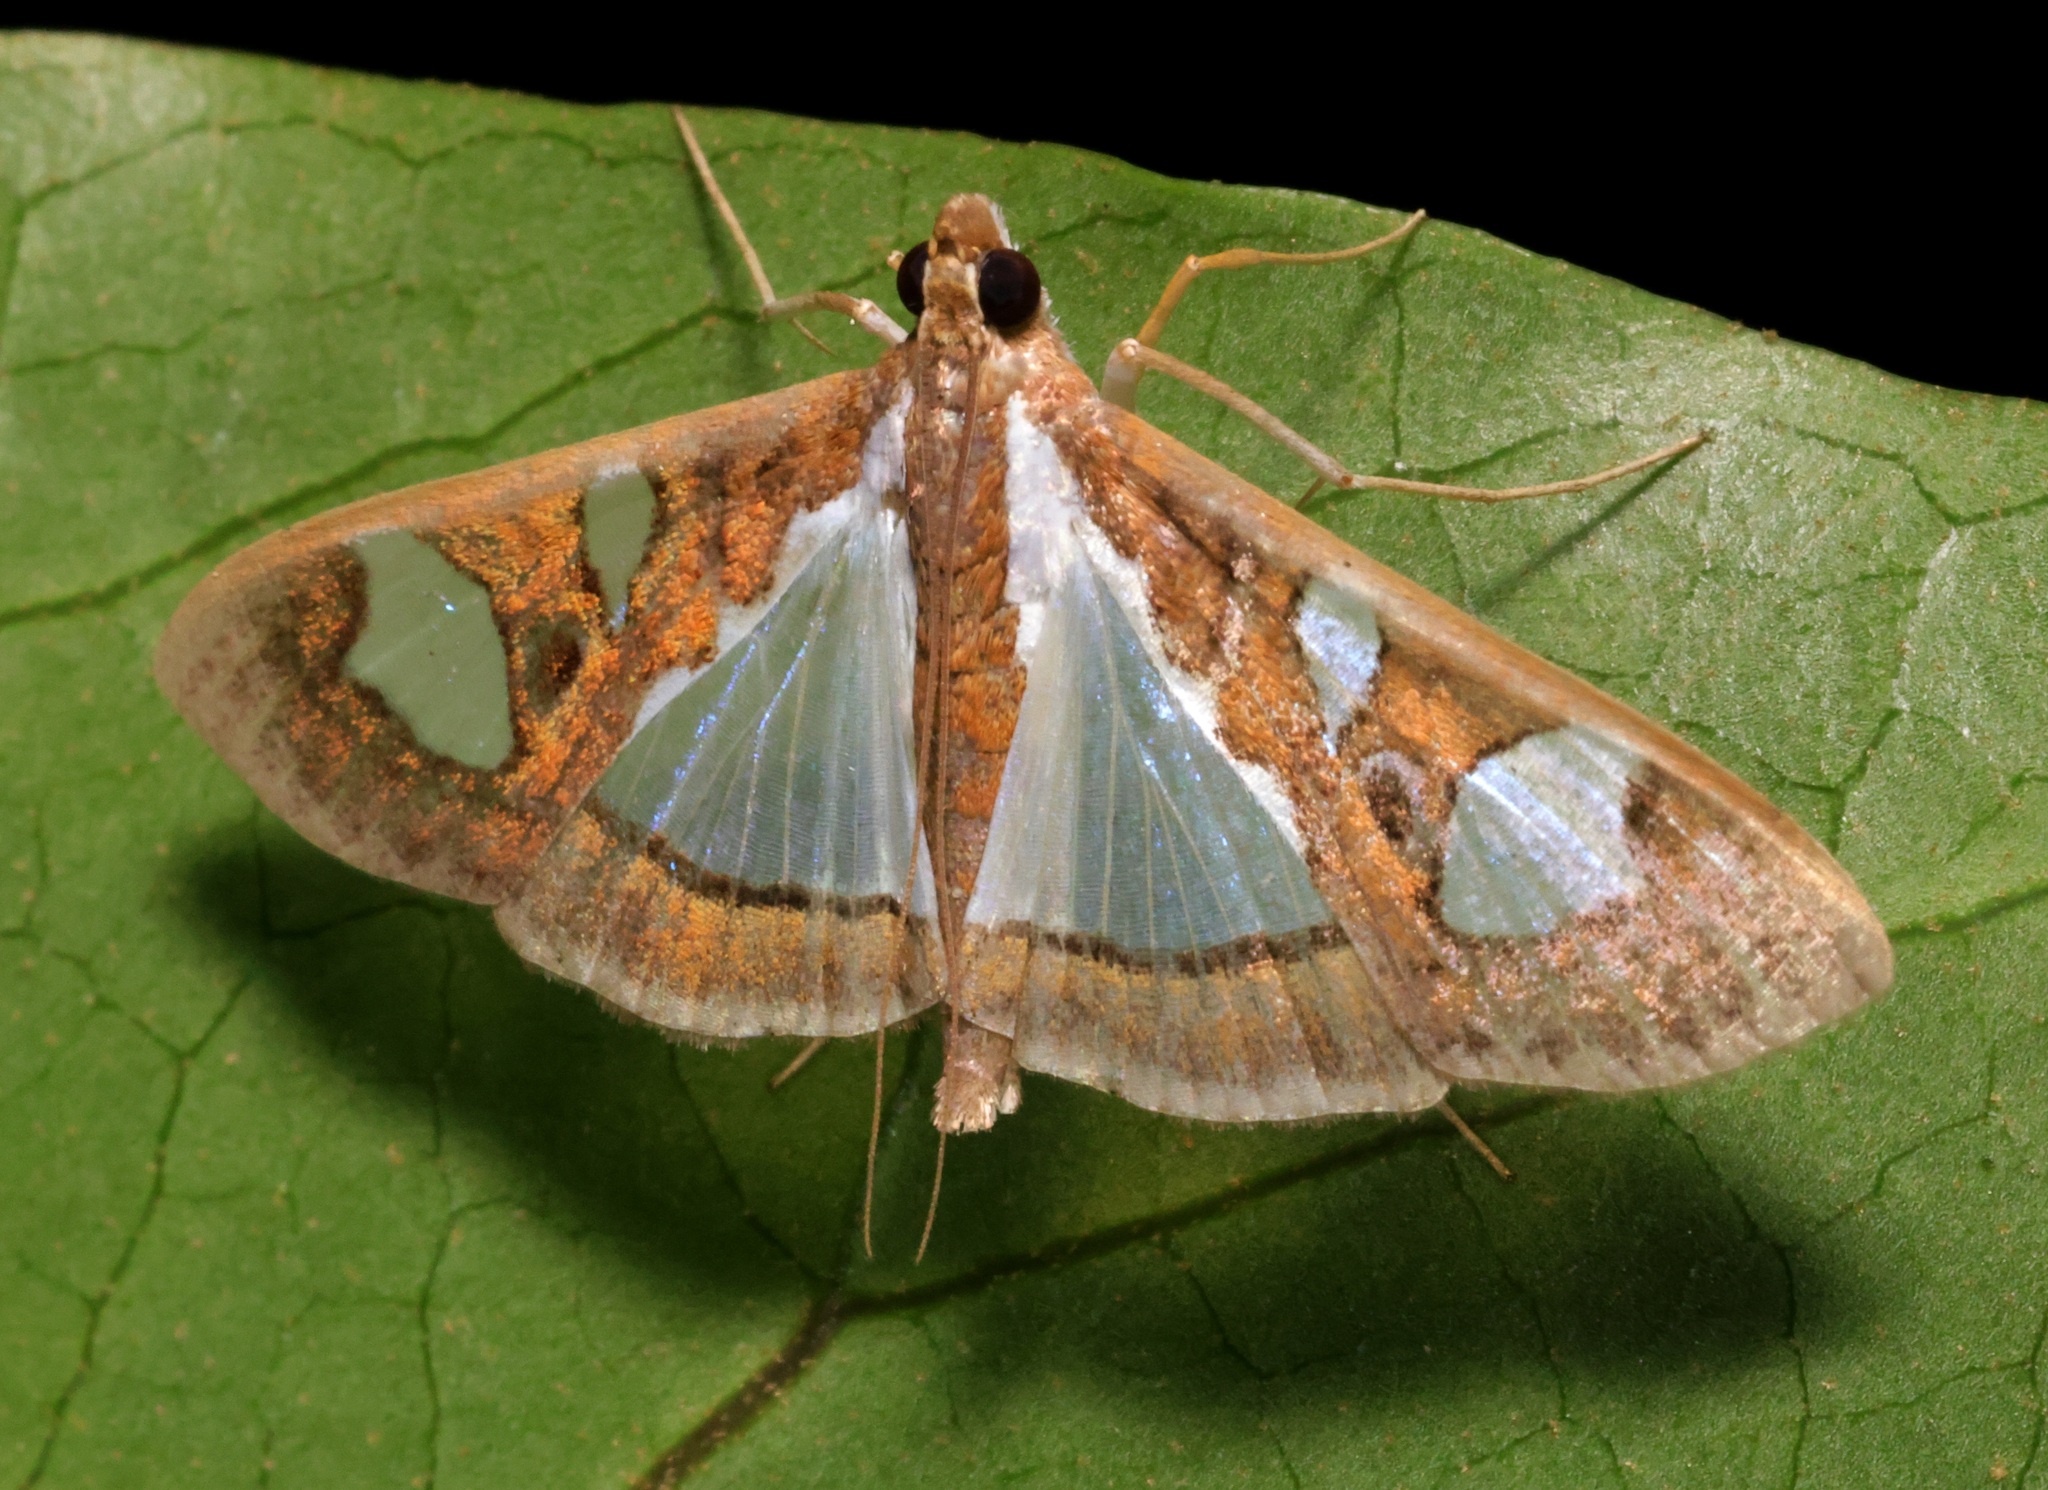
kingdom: Animalia
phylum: Arthropoda
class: Insecta
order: Lepidoptera
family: Crambidae
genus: Glyphodes
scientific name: Glyphodes bivitralis
